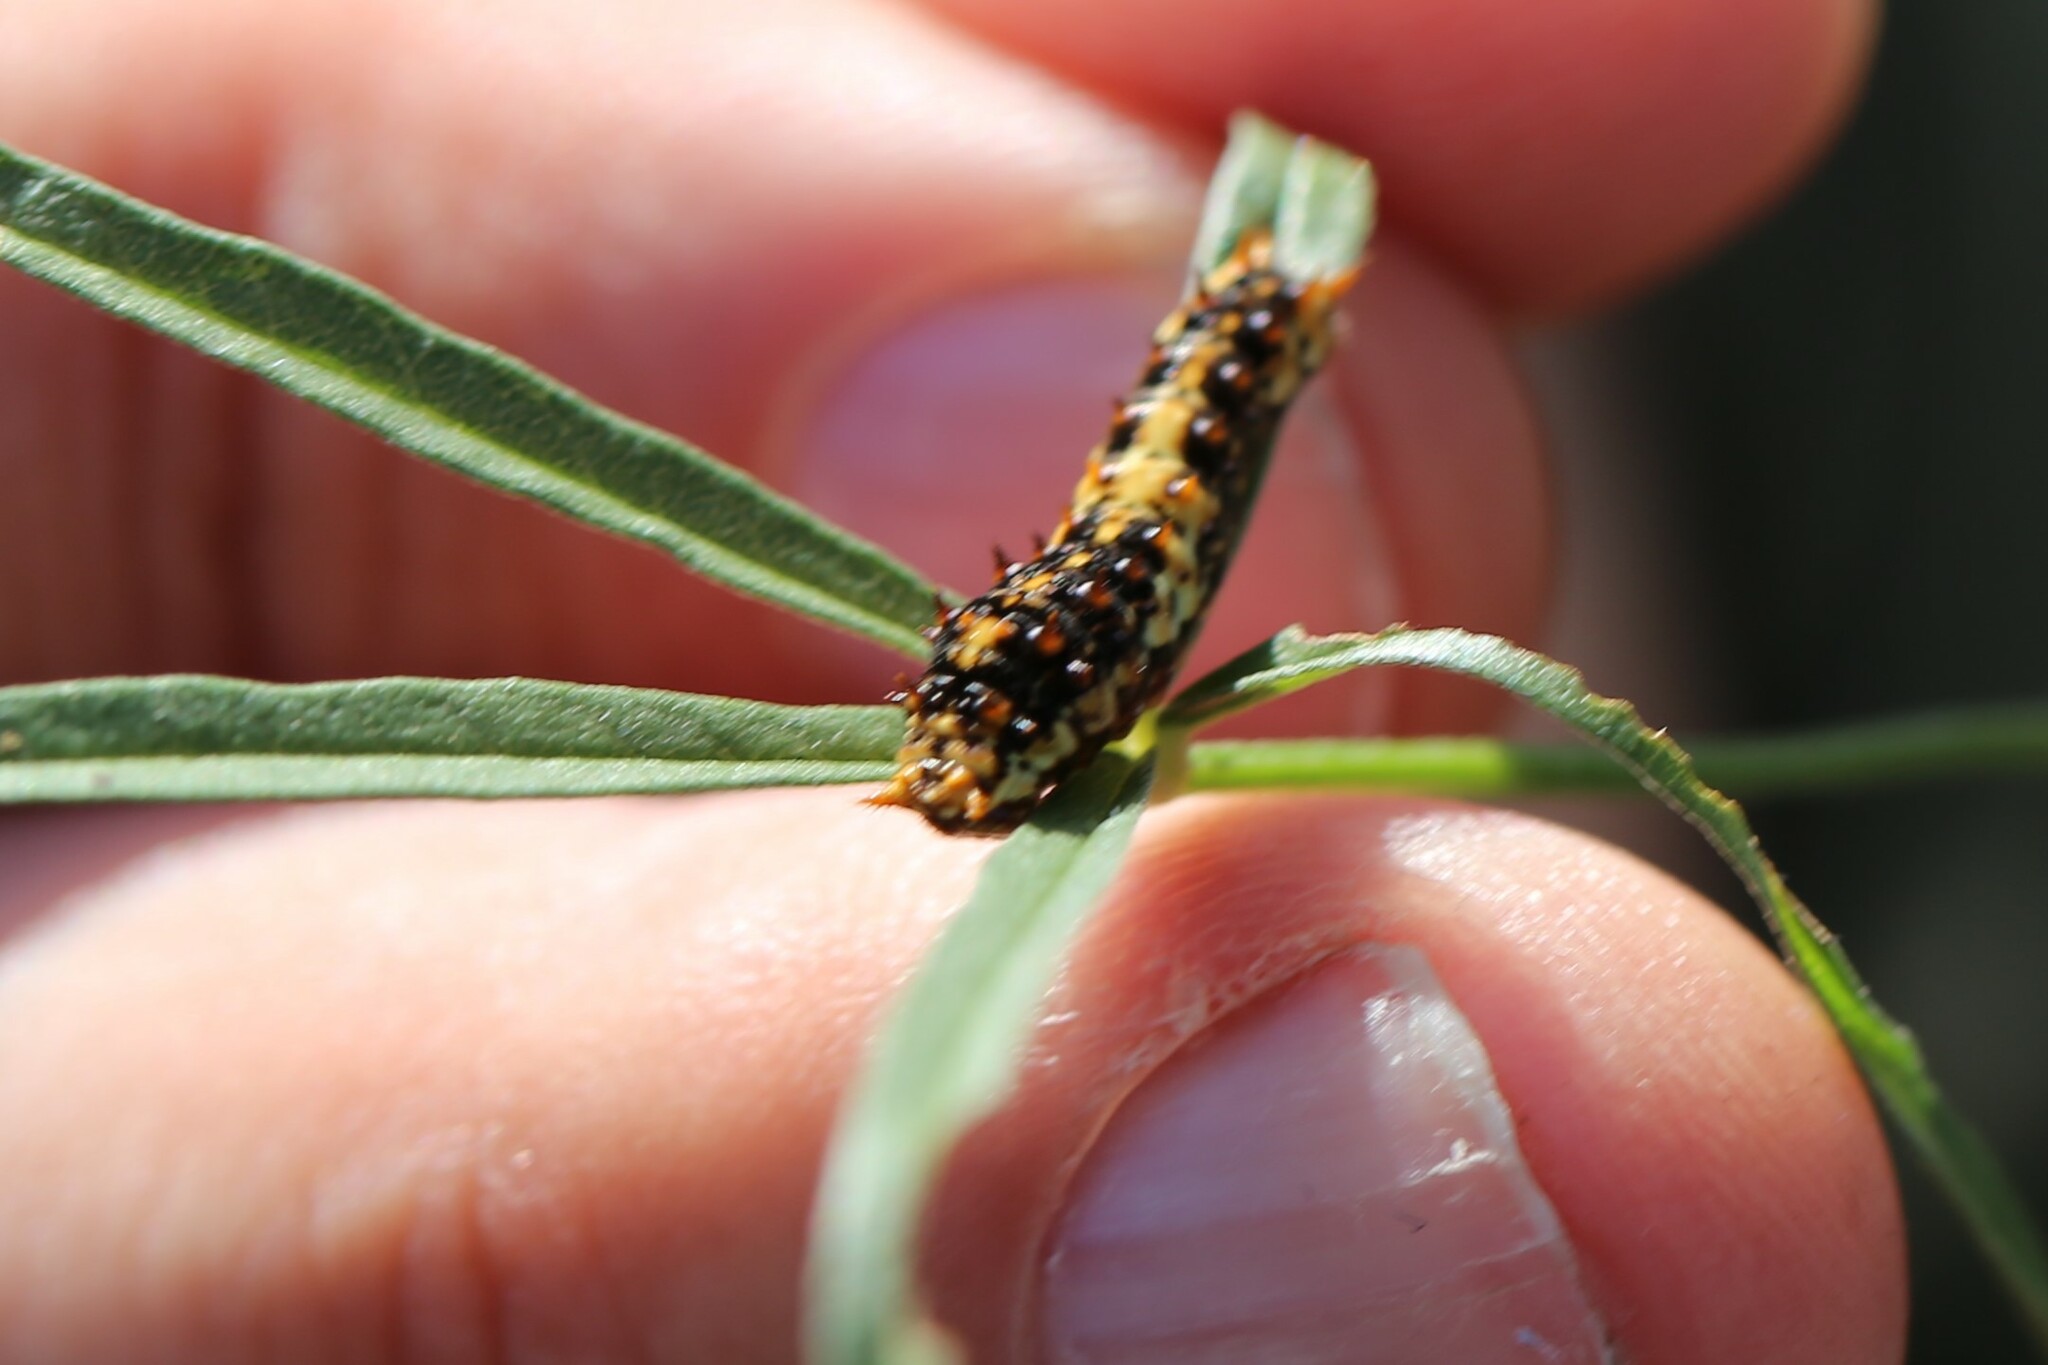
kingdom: Animalia
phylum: Arthropoda
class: Insecta
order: Lepidoptera
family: Papilionidae
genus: Papilio
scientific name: Papilio demoleus
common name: Lime butterfly
